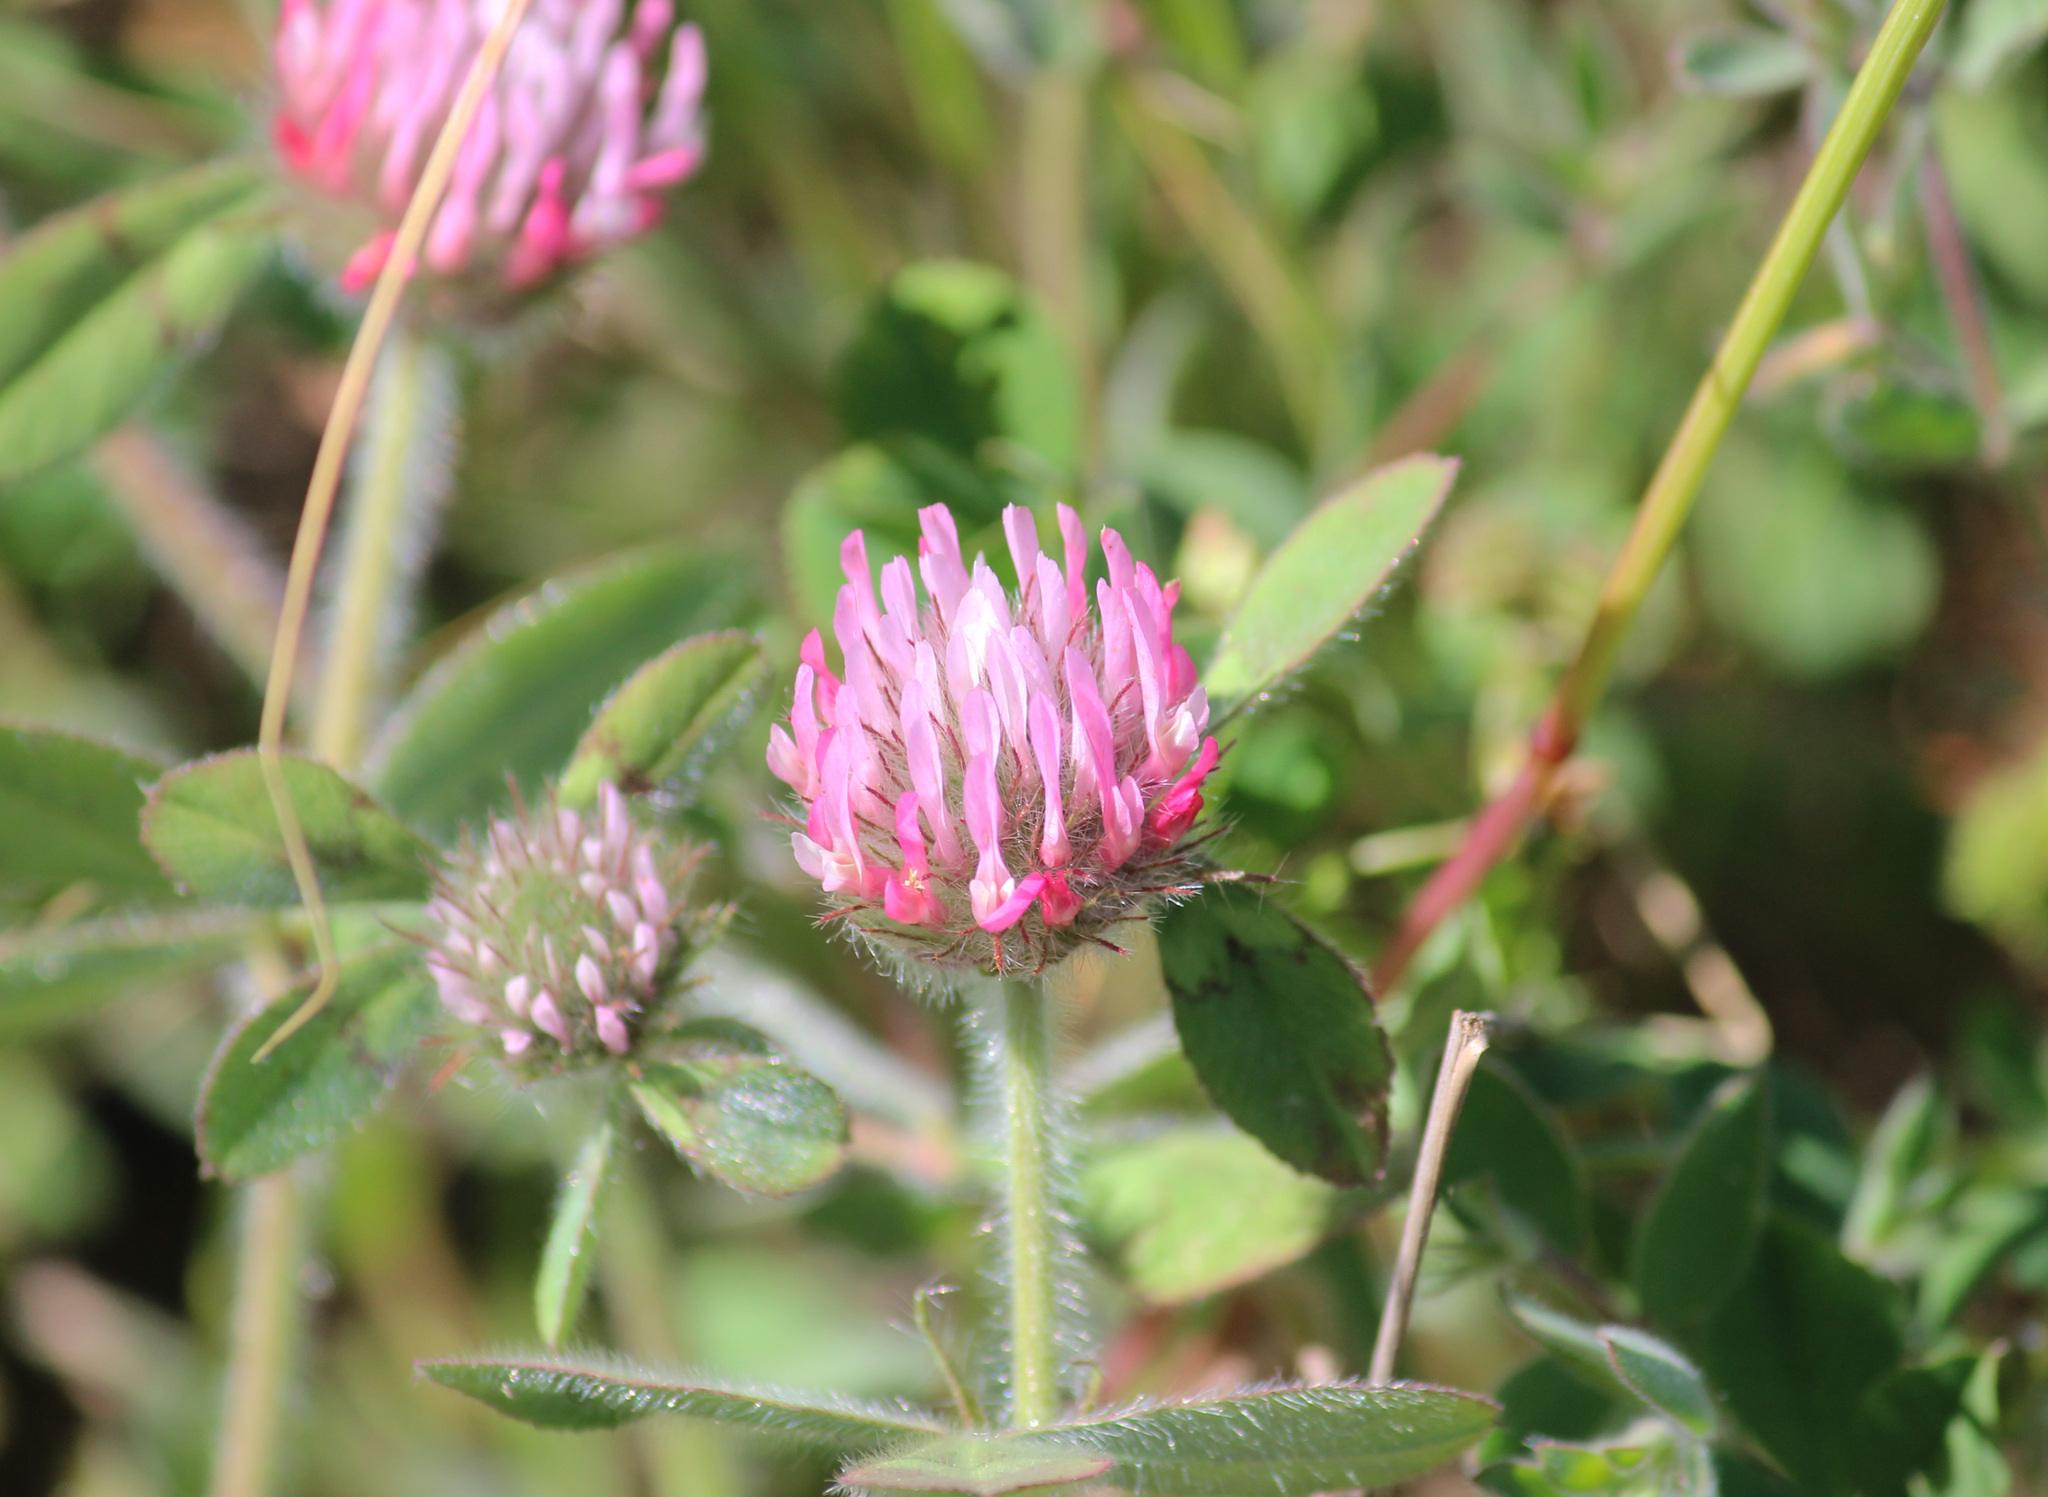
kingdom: Plantae
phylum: Tracheophyta
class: Magnoliopsida
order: Fabales
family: Fabaceae
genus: Trifolium
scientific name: Trifolium hirtum
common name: Rose clover
